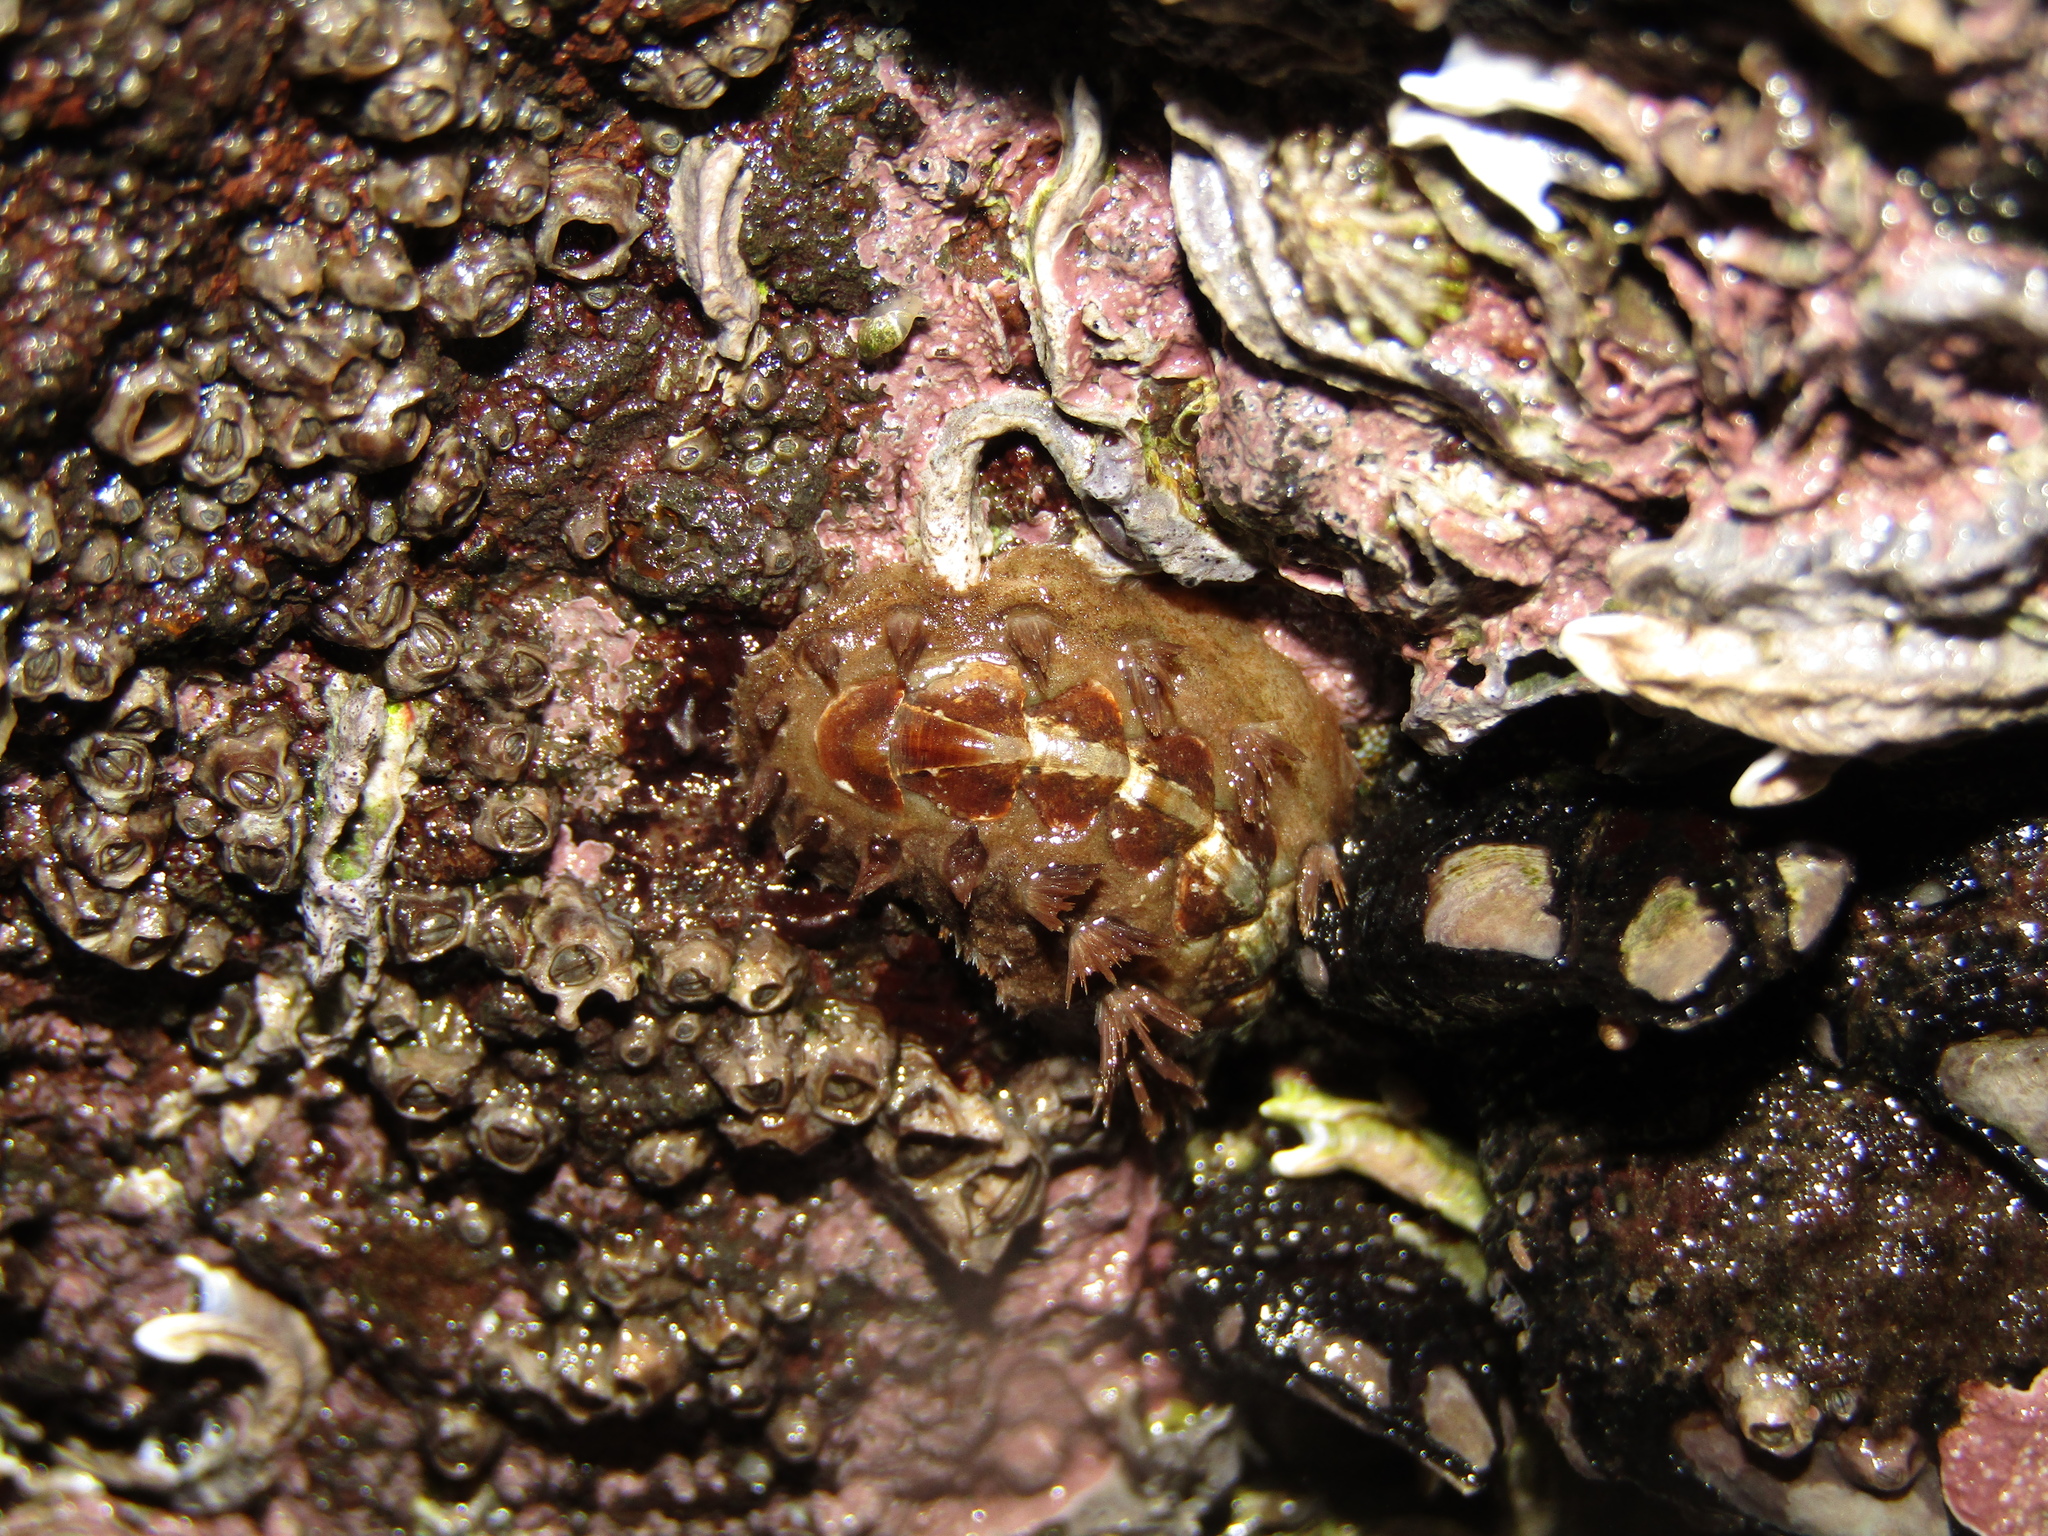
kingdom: Animalia
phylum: Mollusca
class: Polyplacophora
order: Chitonida
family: Acanthochitonidae
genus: Acanthochitona
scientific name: Acanthochitona zelandica
